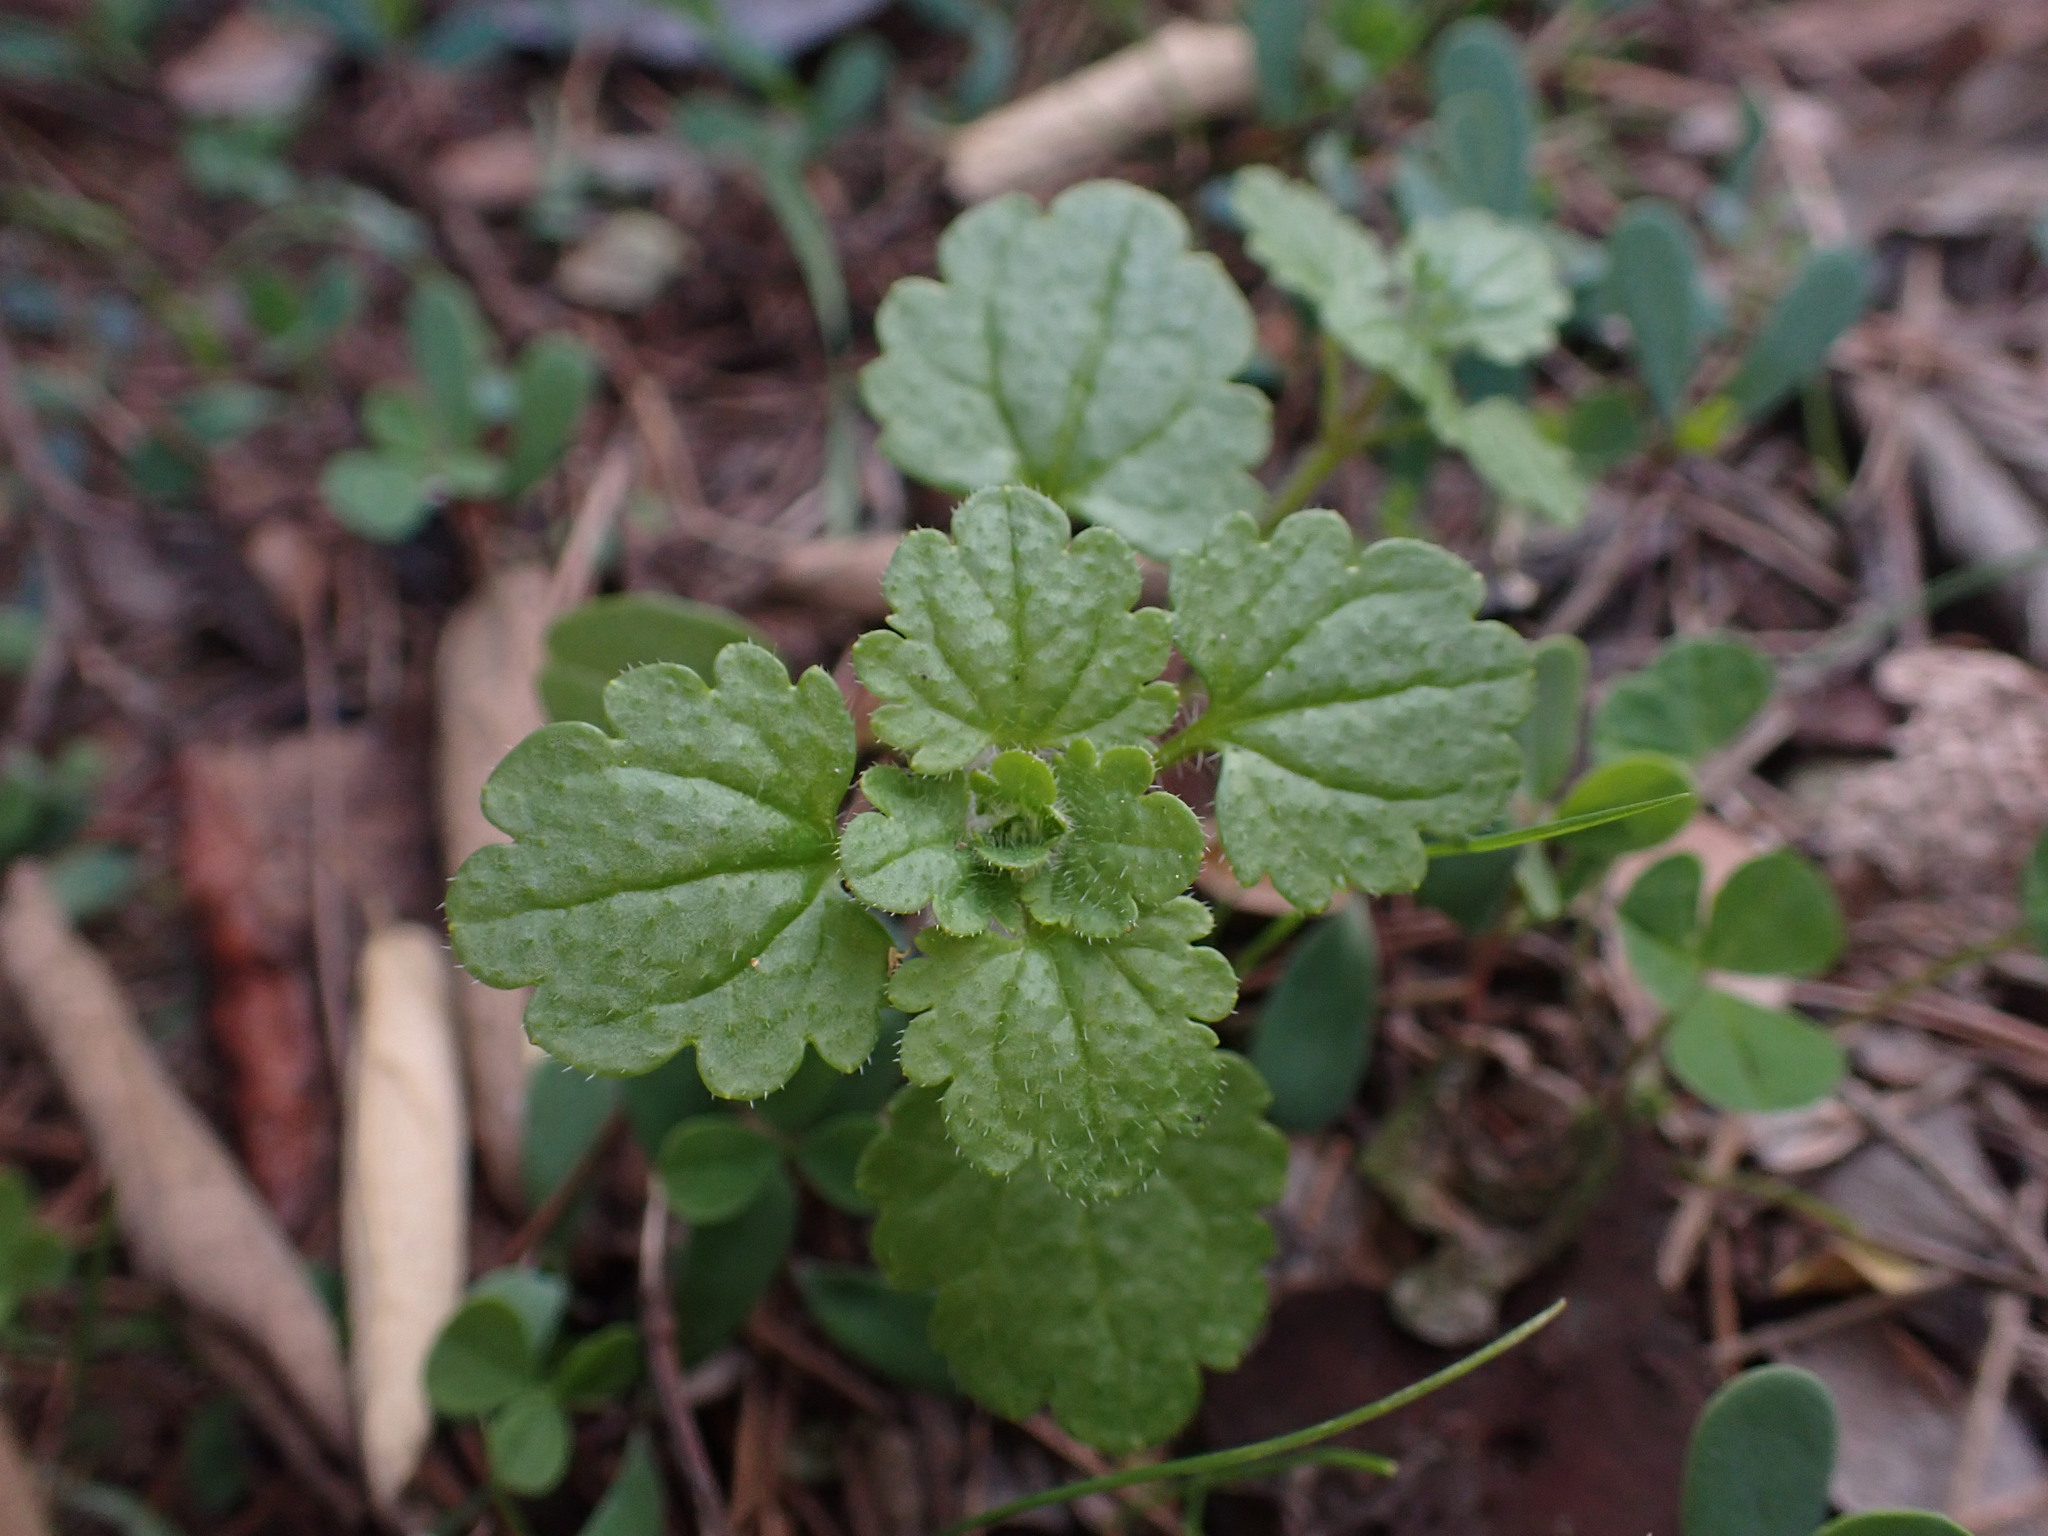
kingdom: Plantae
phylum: Tracheophyta
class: Magnoliopsida
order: Lamiales
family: Plantaginaceae
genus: Veronica
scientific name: Veronica cymbalaria
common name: Pale speedwell
